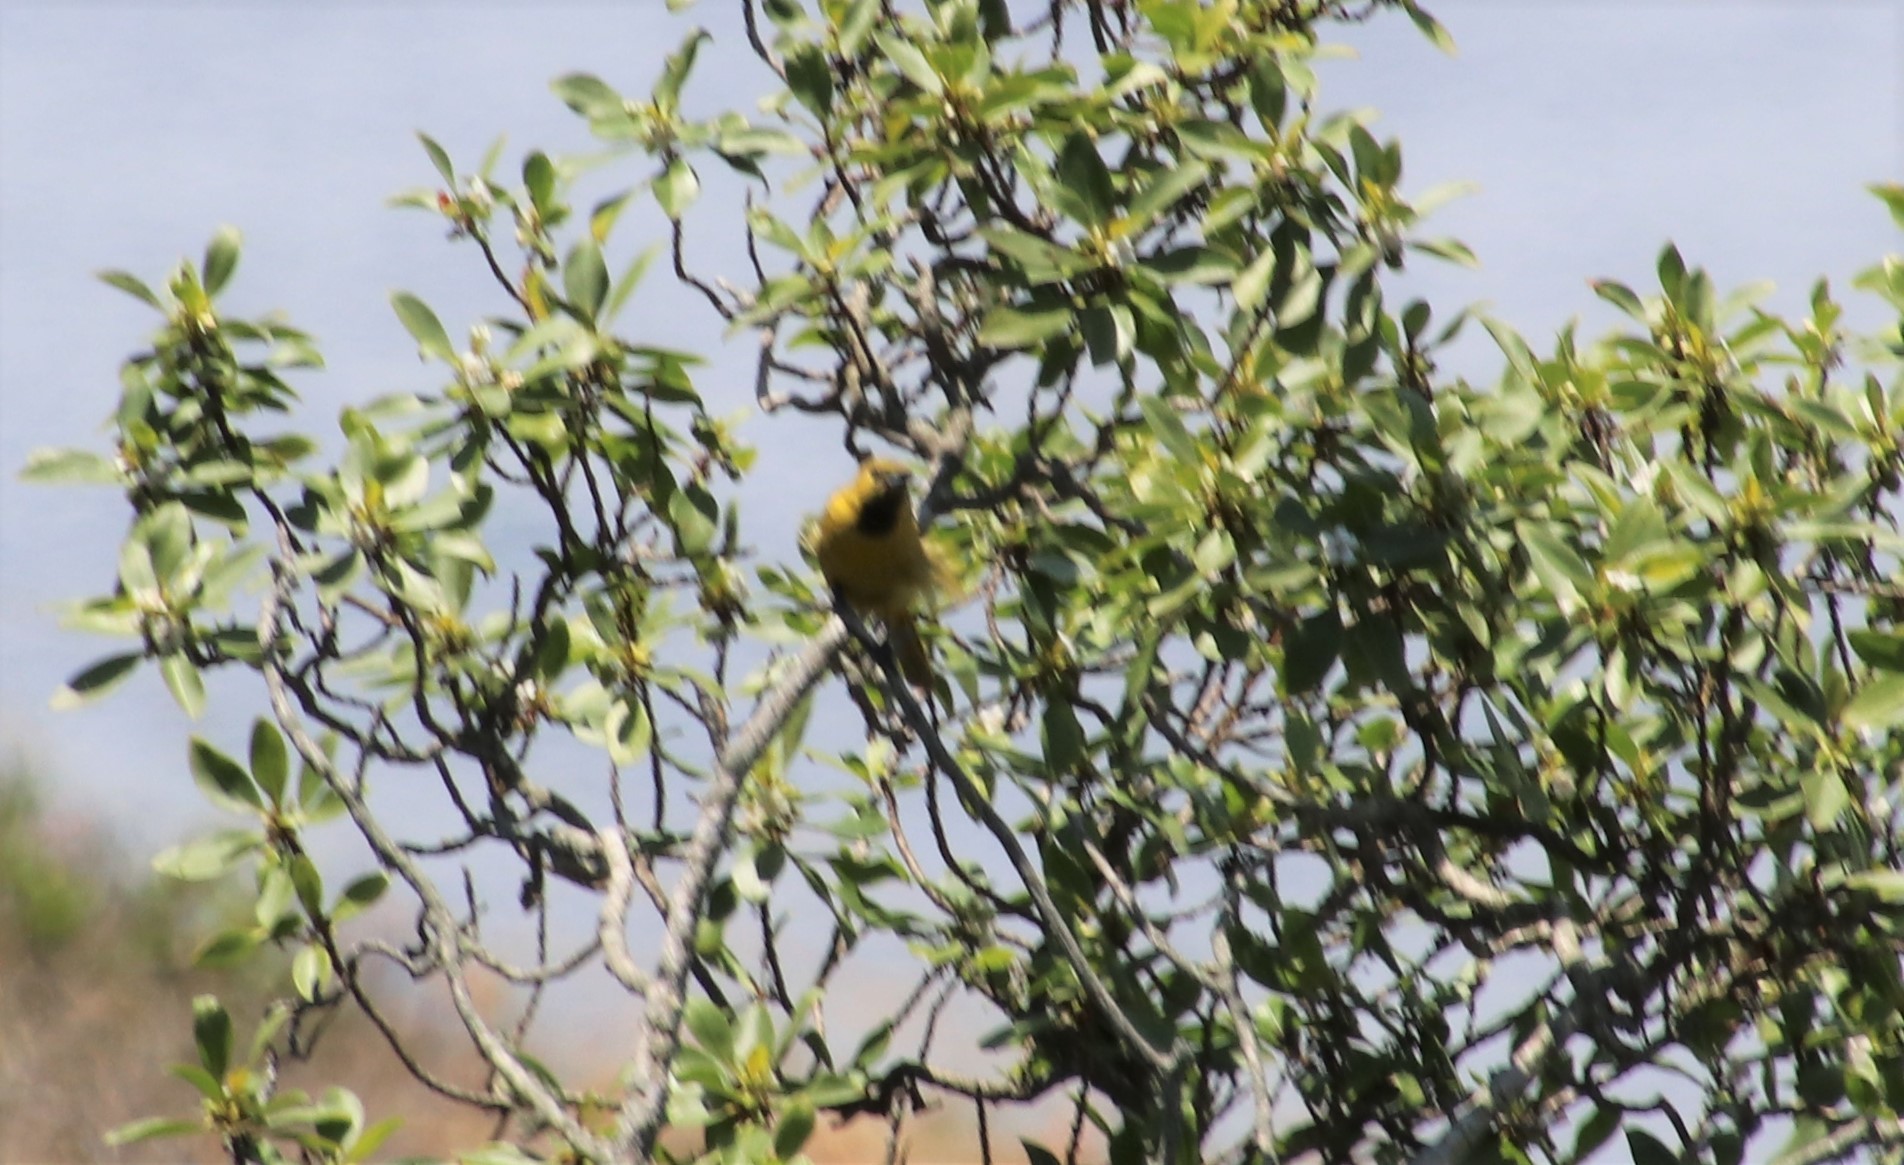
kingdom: Animalia
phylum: Chordata
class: Aves
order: Passeriformes
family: Icteridae
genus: Icterus
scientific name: Icterus cucullatus
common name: Hooded oriole
